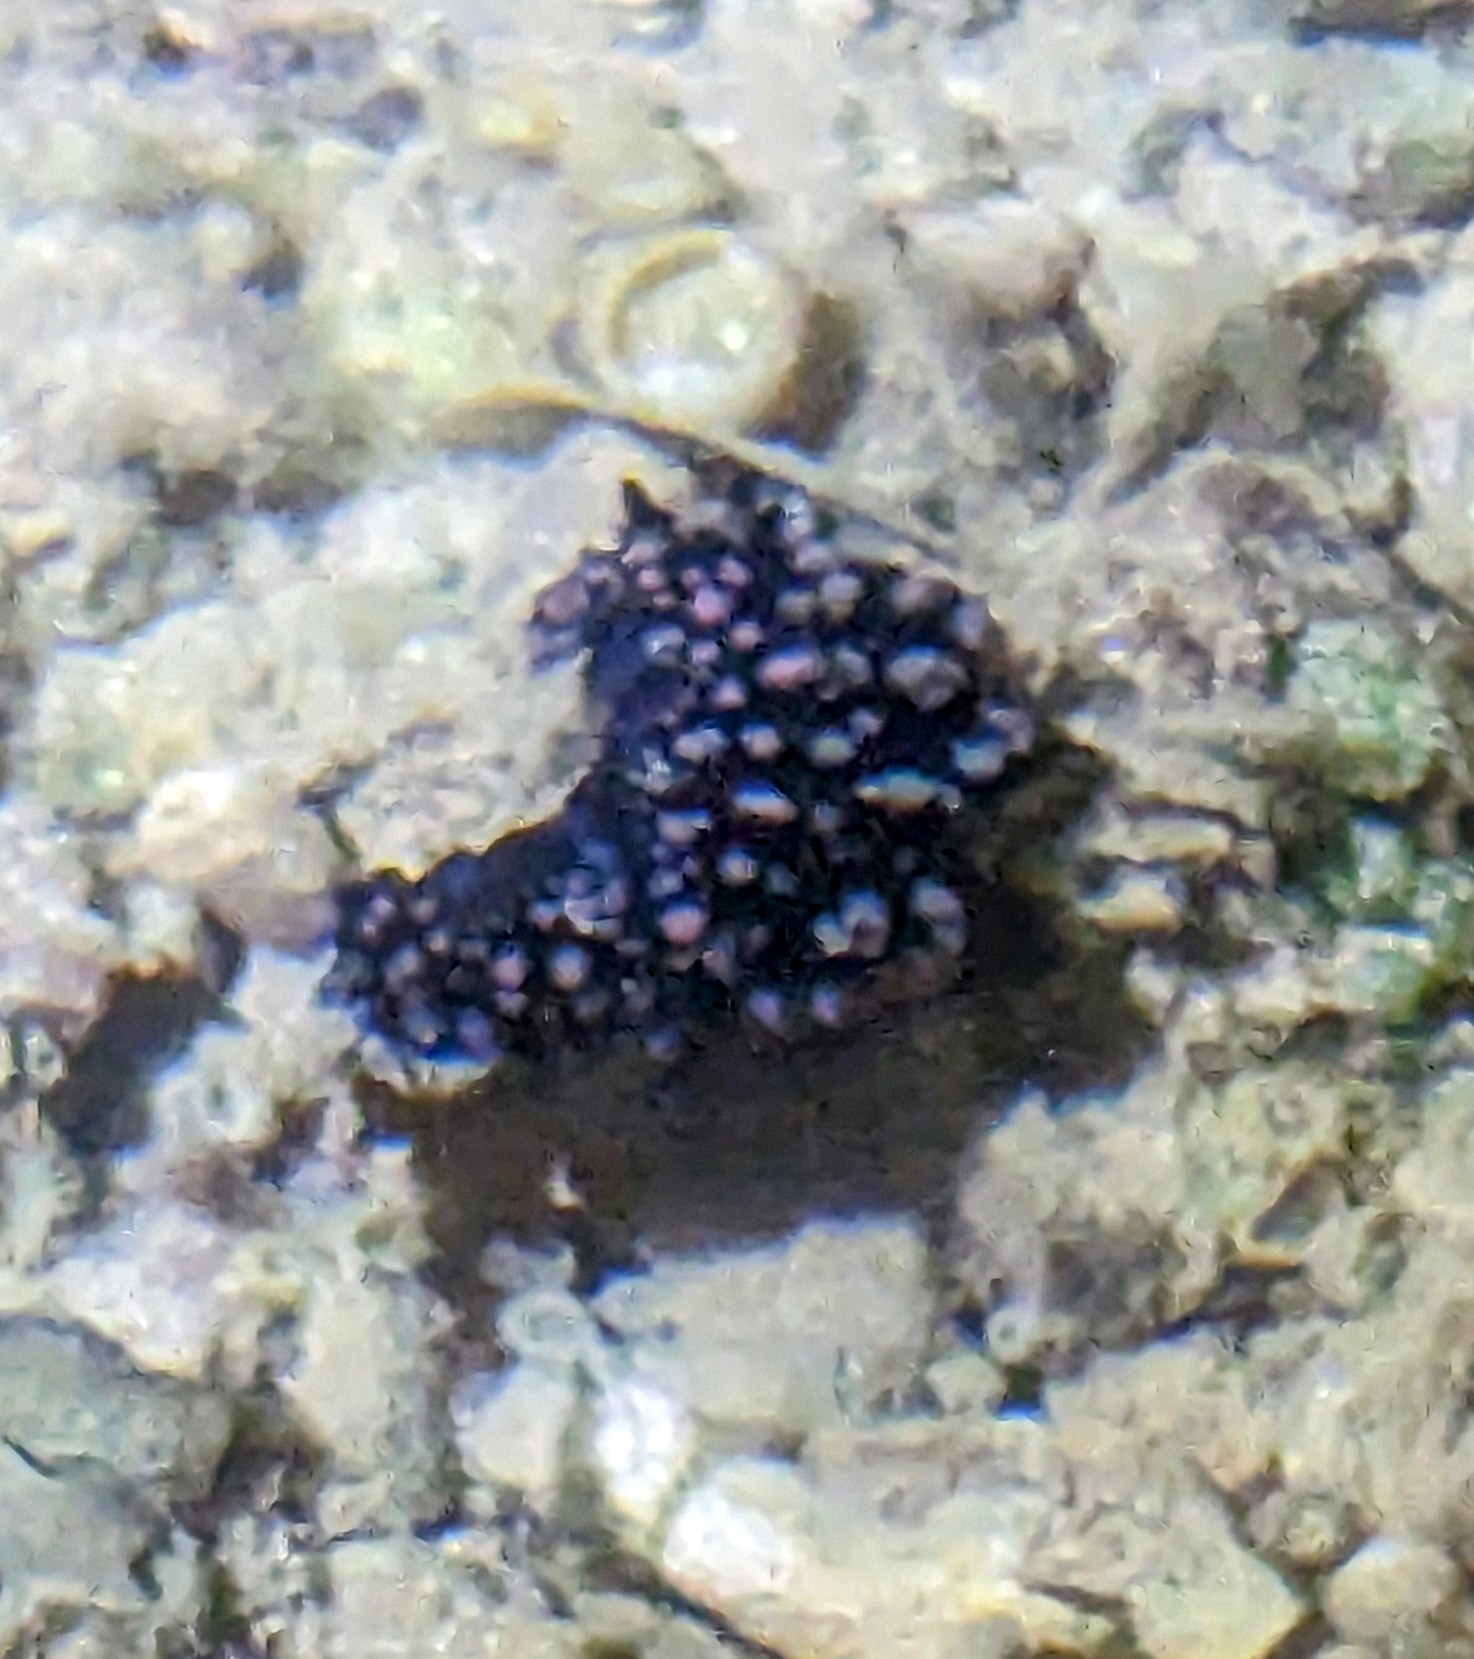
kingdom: Animalia
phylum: Mollusca
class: Gastropoda
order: Nudibranchia
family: Phyllidiidae
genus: Phyllidiella
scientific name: Phyllidiella nigra
